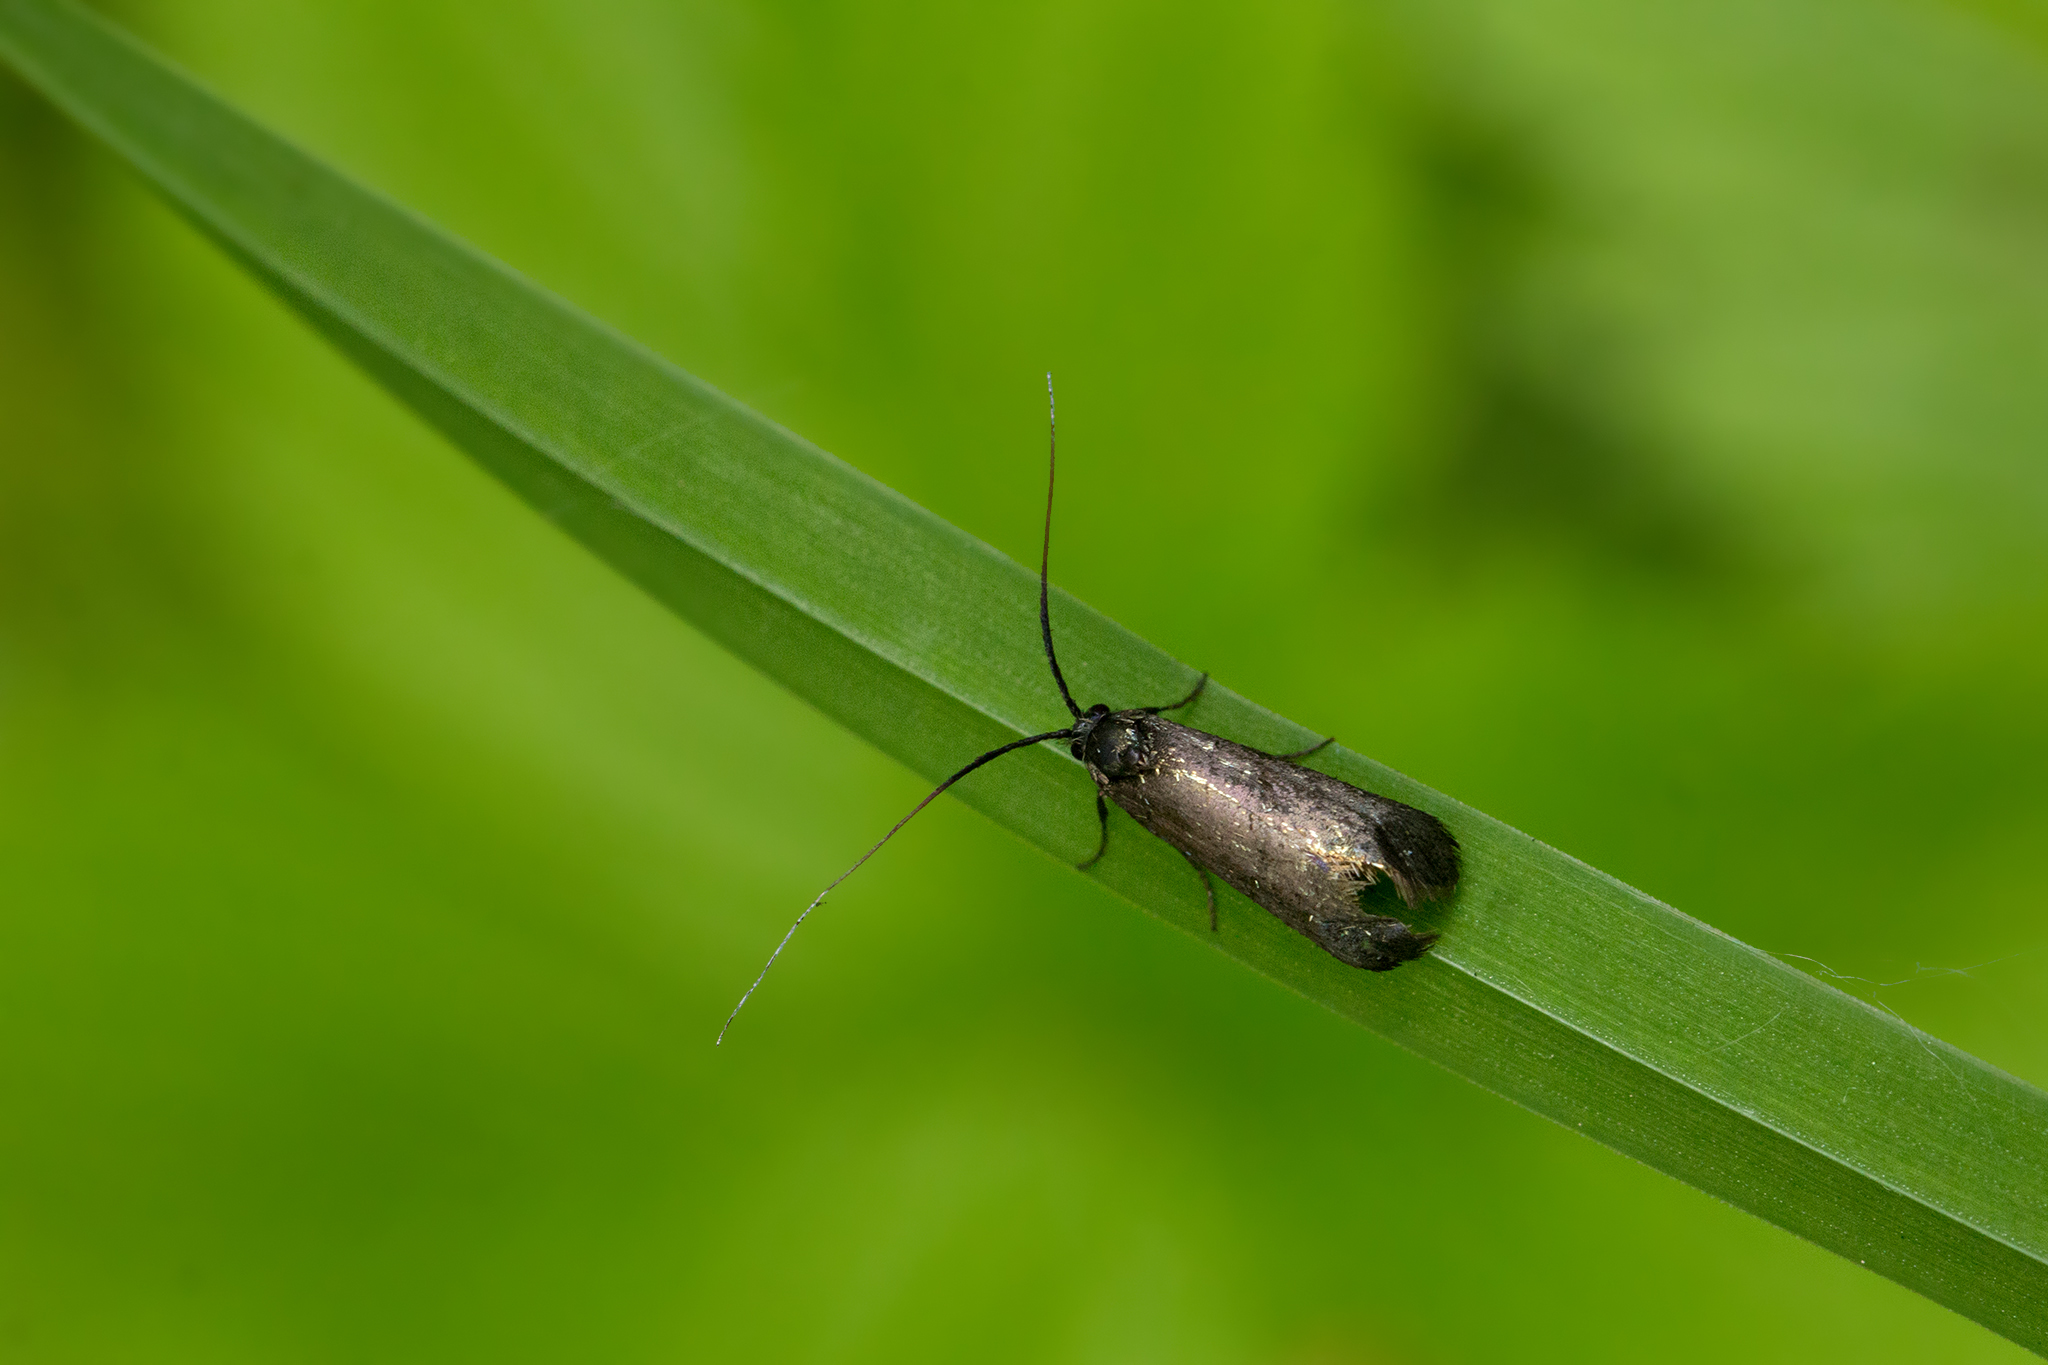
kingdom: Animalia
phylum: Arthropoda
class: Insecta
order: Lepidoptera
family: Adelidae
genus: Adela
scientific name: Adela viridella
